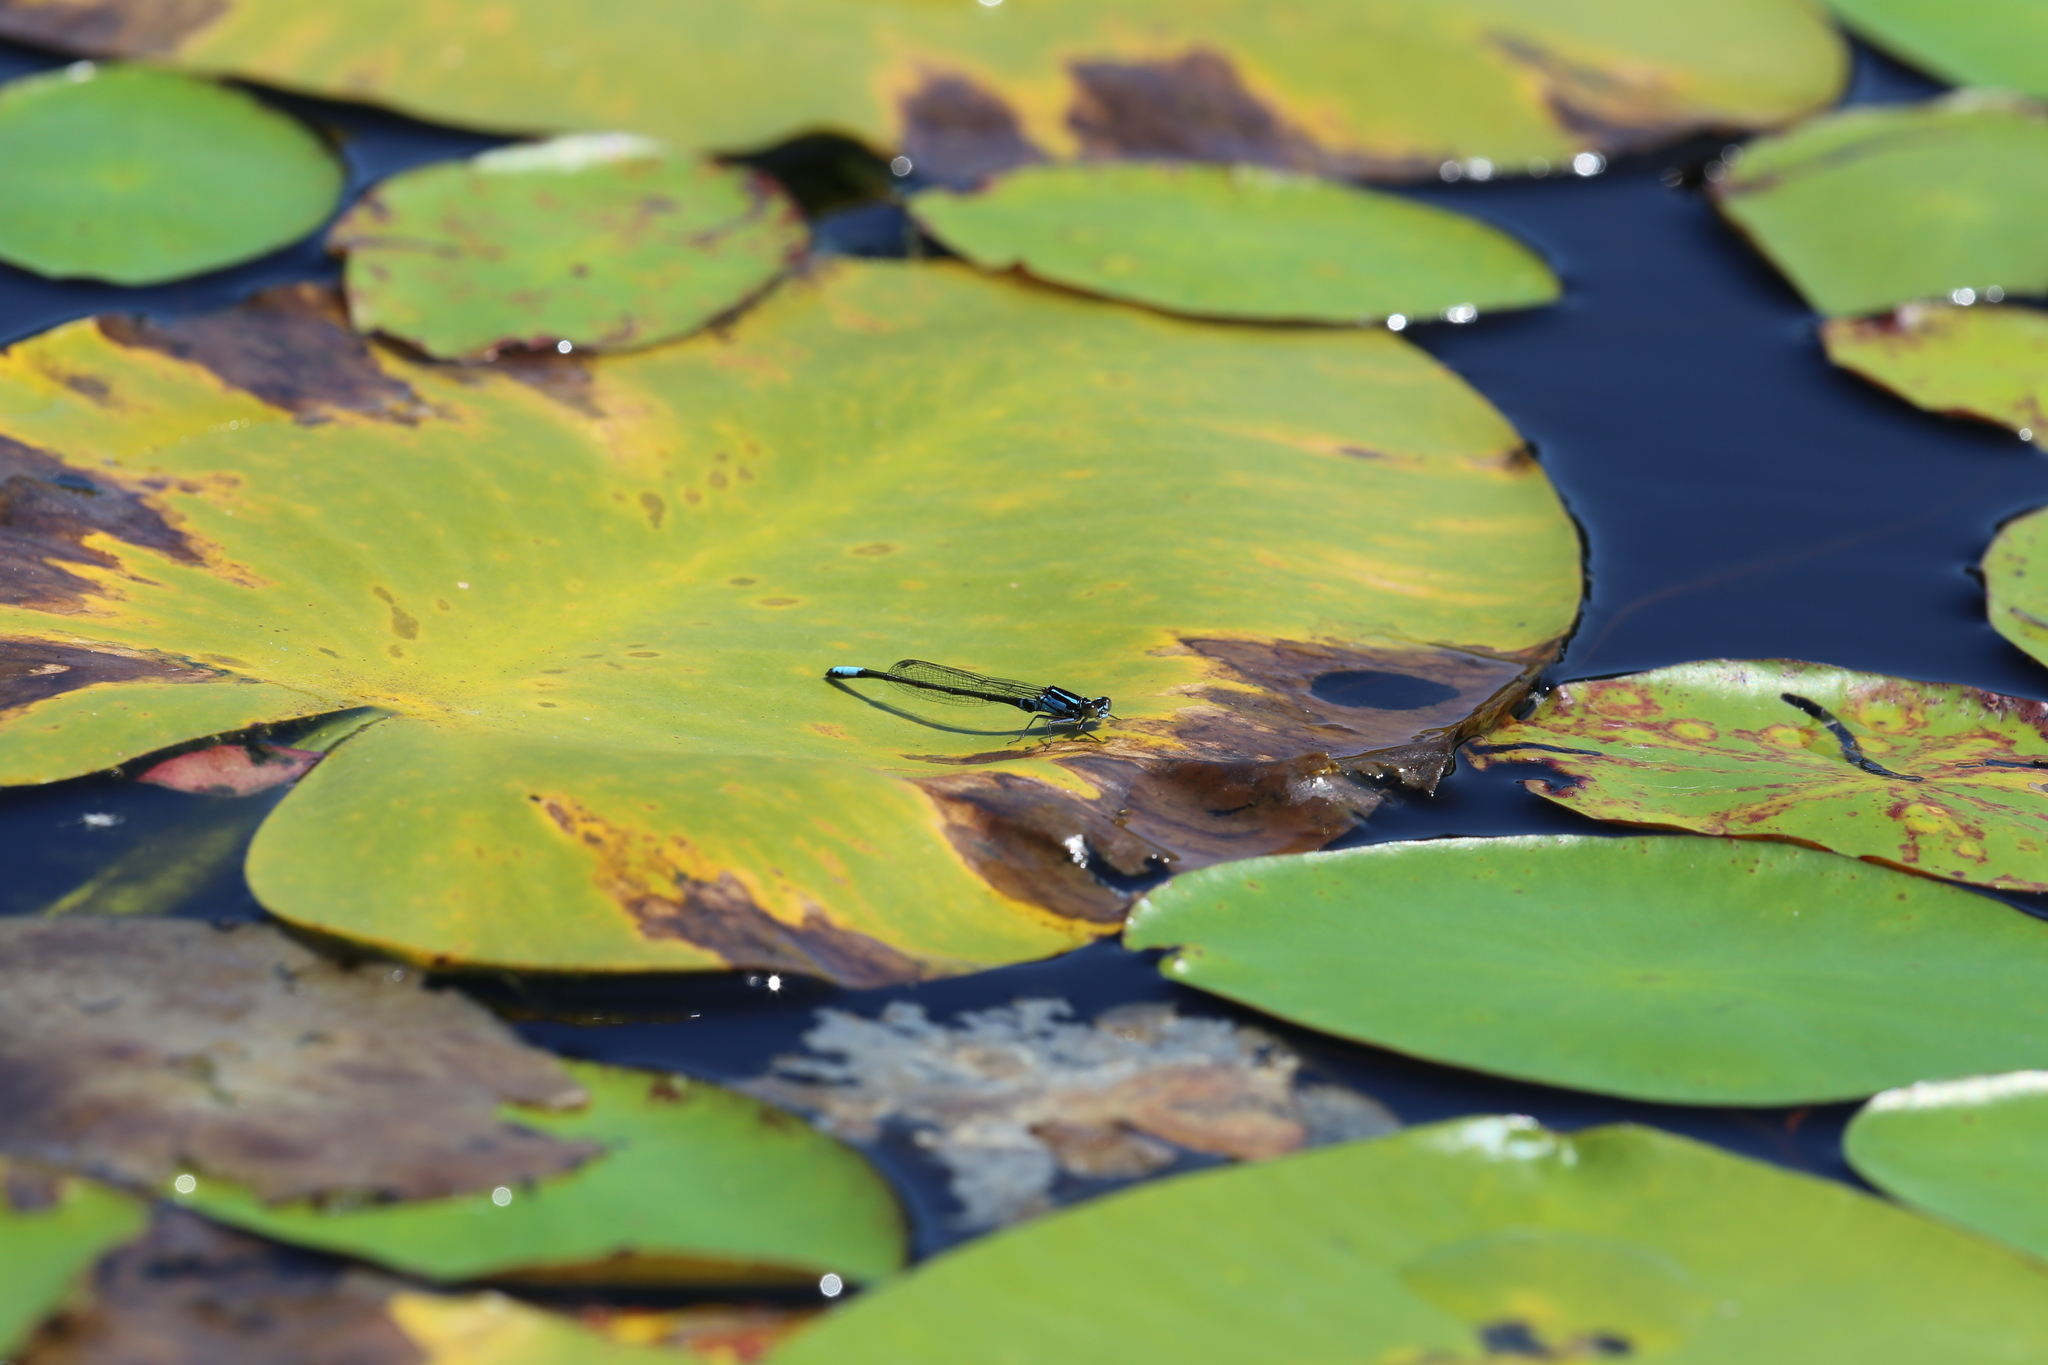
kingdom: Animalia
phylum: Arthropoda
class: Insecta
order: Odonata
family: Coenagrionidae
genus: Ischnura
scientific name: Ischnura kellicotti
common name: Lilypad forktail
